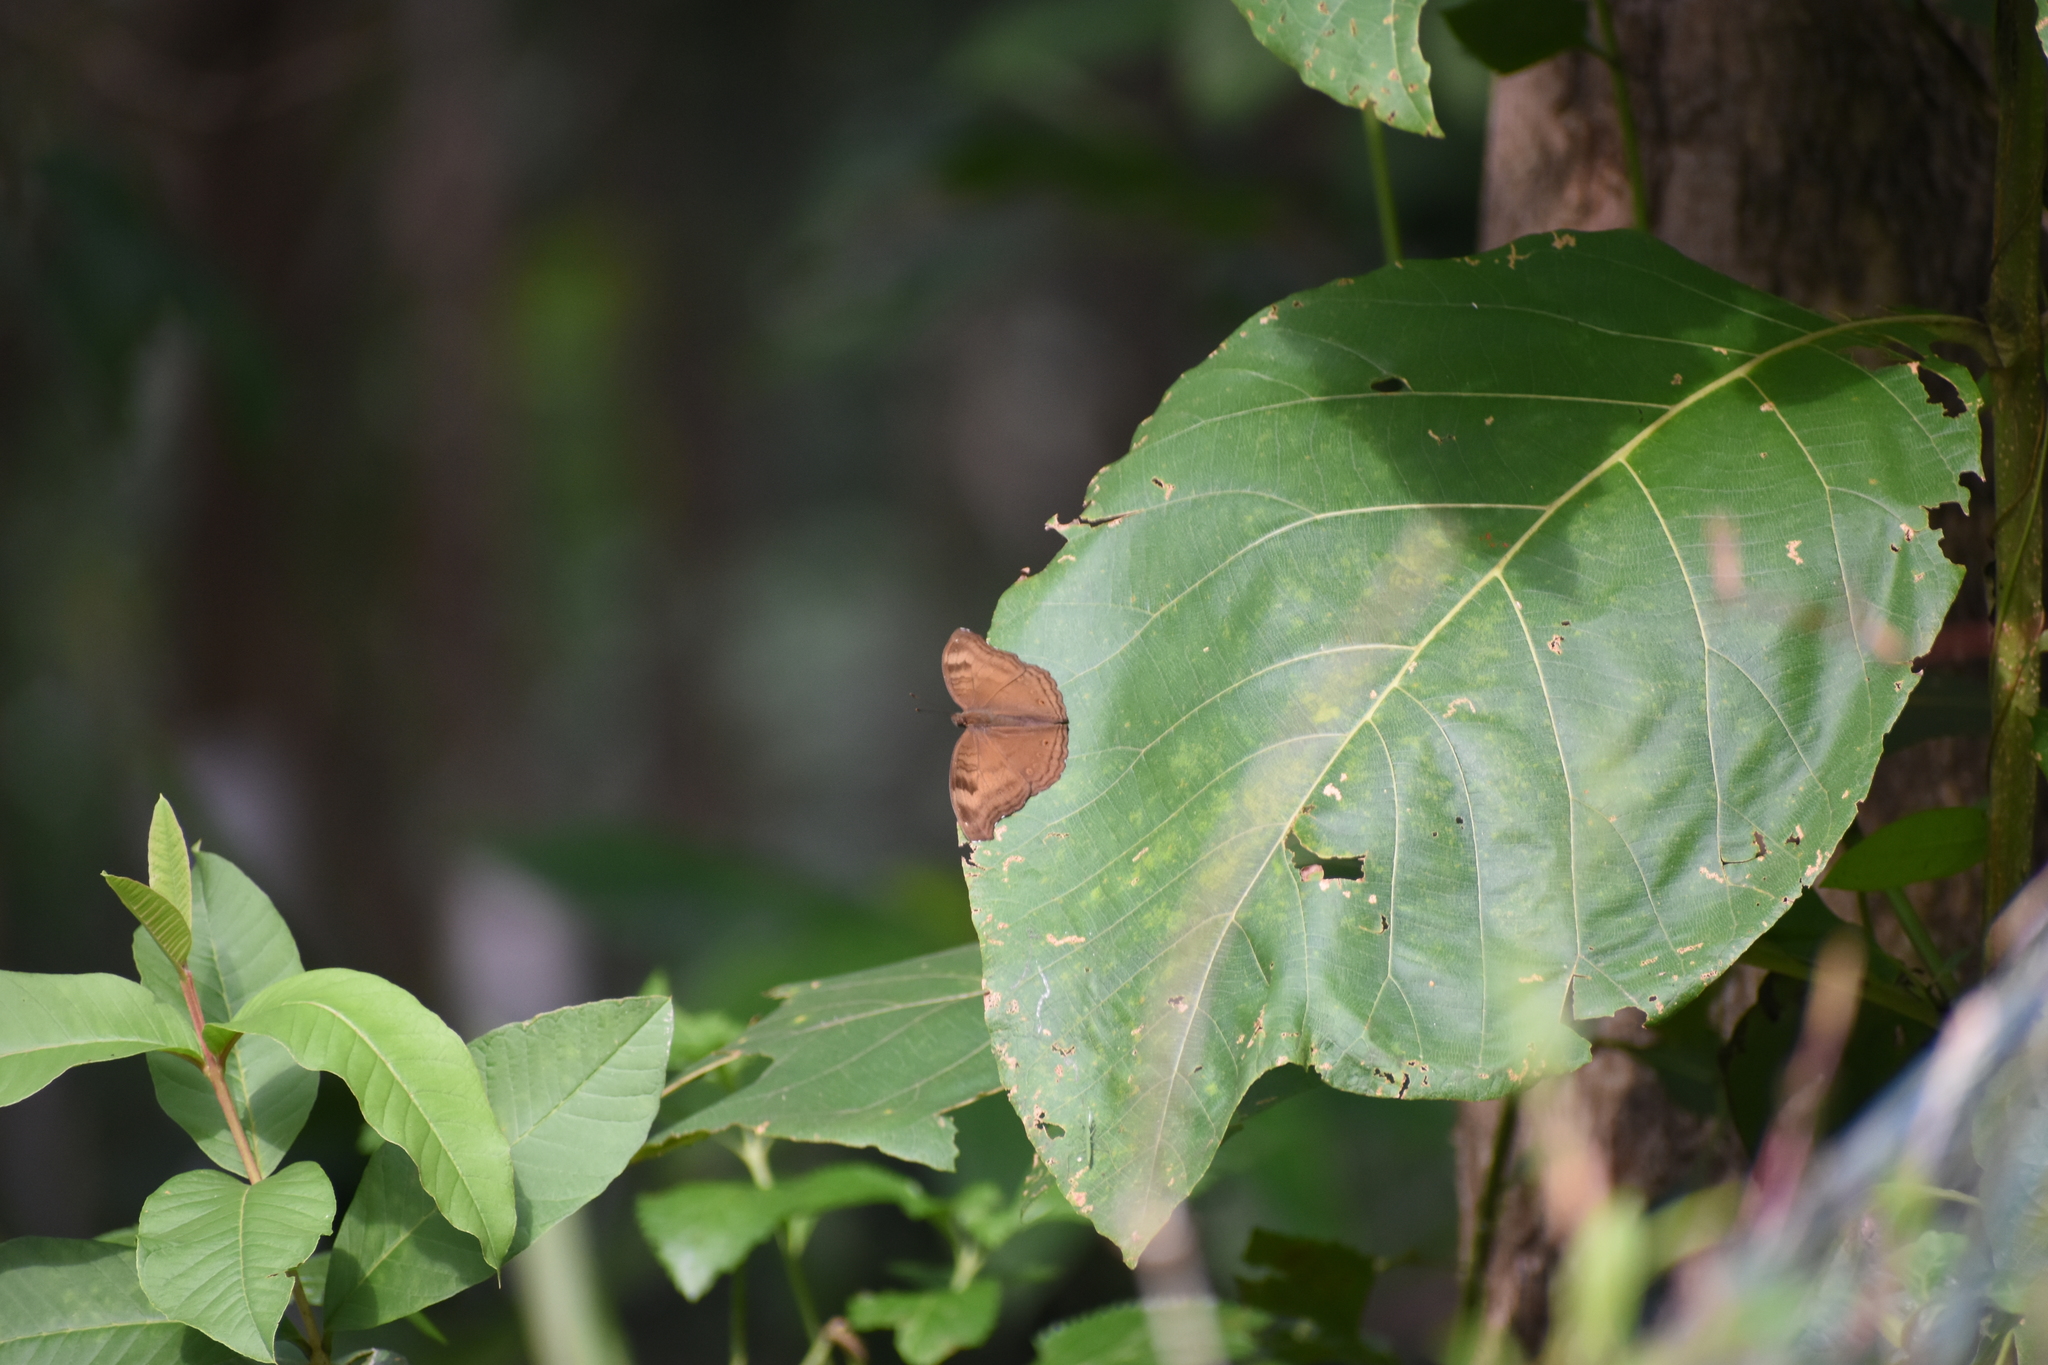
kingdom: Animalia
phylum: Arthropoda
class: Insecta
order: Lepidoptera
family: Nymphalidae
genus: Junonia
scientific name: Junonia iphita
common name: Chocolate pansy
